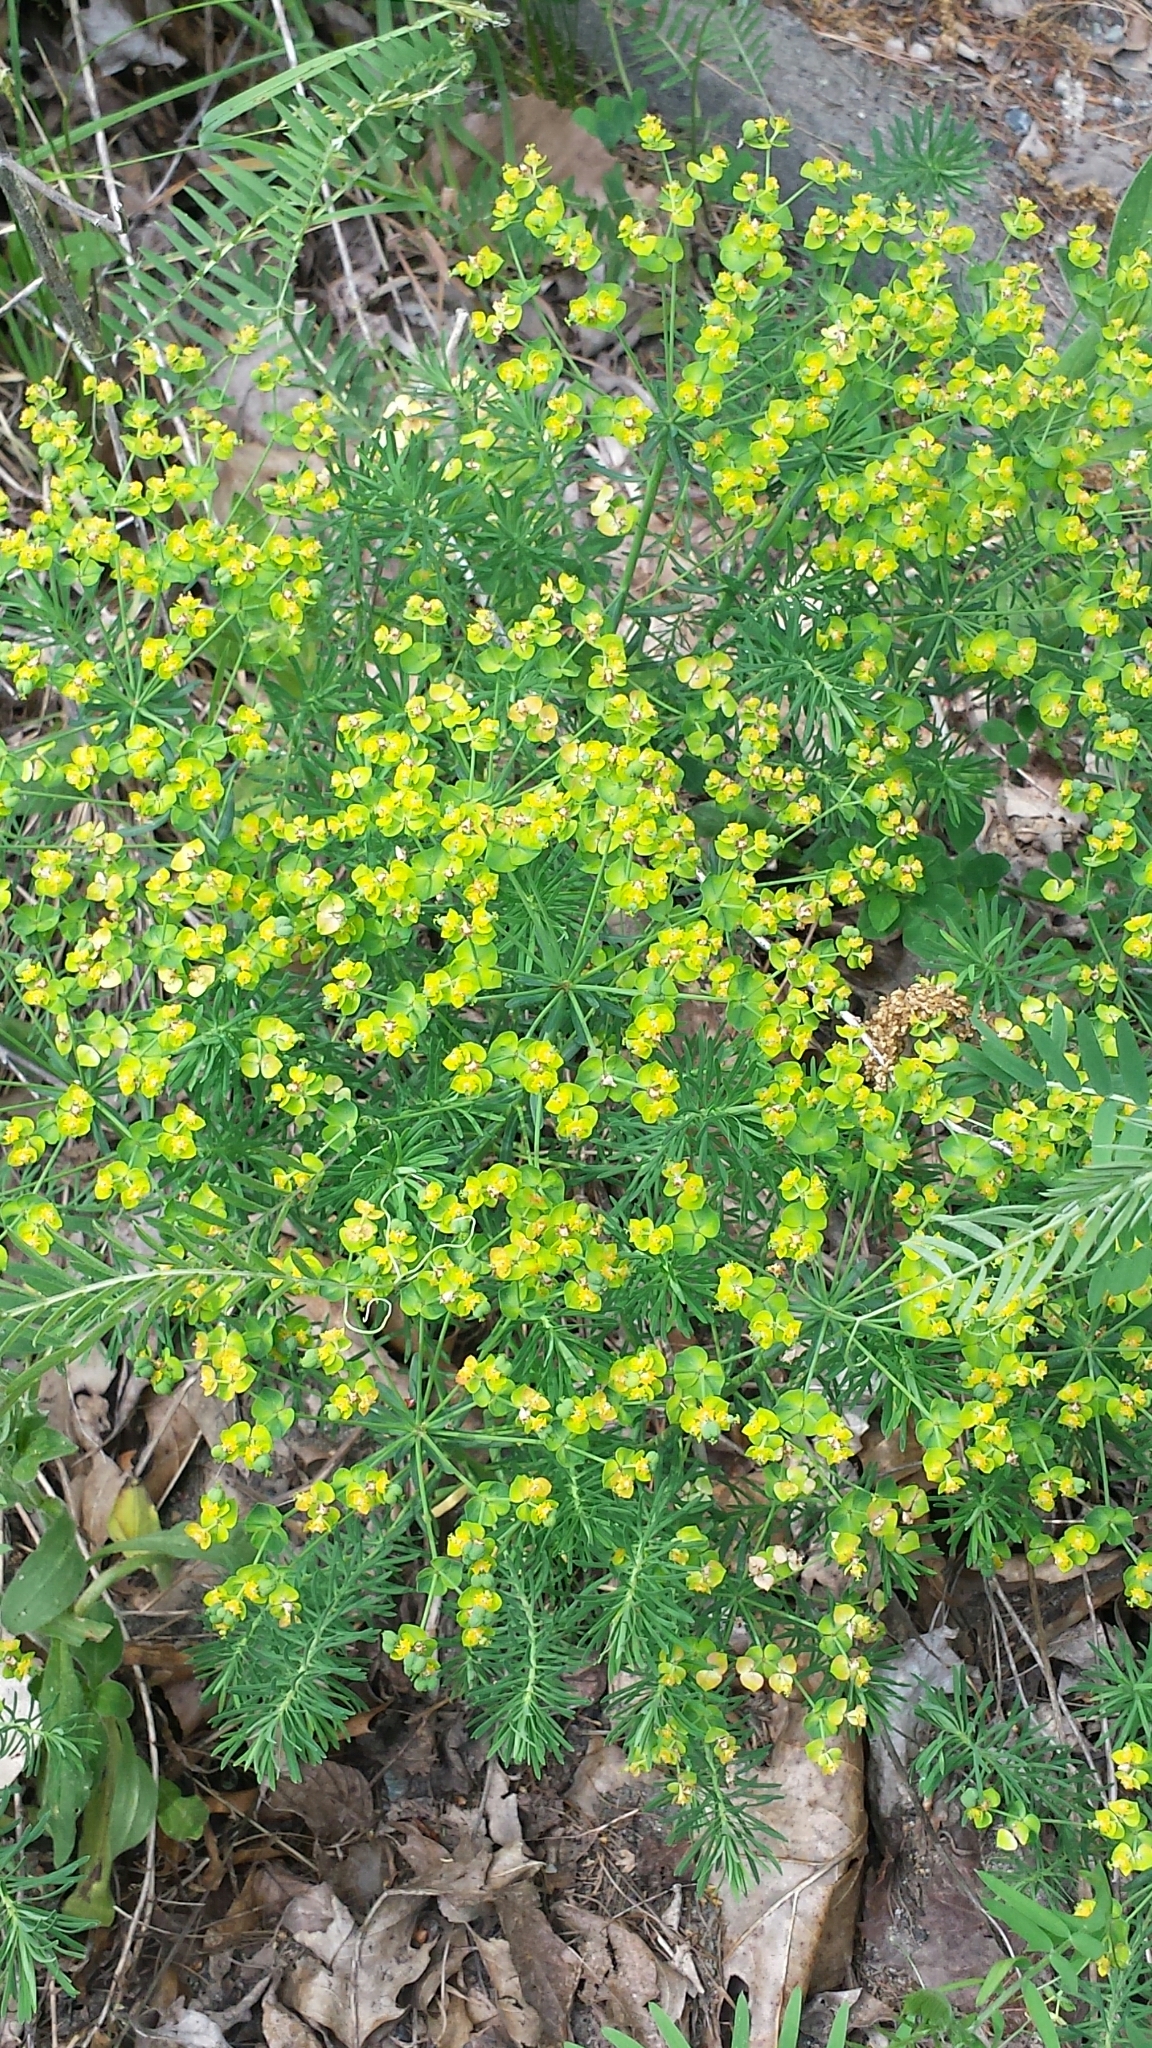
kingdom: Plantae
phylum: Tracheophyta
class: Magnoliopsida
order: Malpighiales
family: Euphorbiaceae
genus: Euphorbia
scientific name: Euphorbia cyparissias
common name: Cypress spurge
